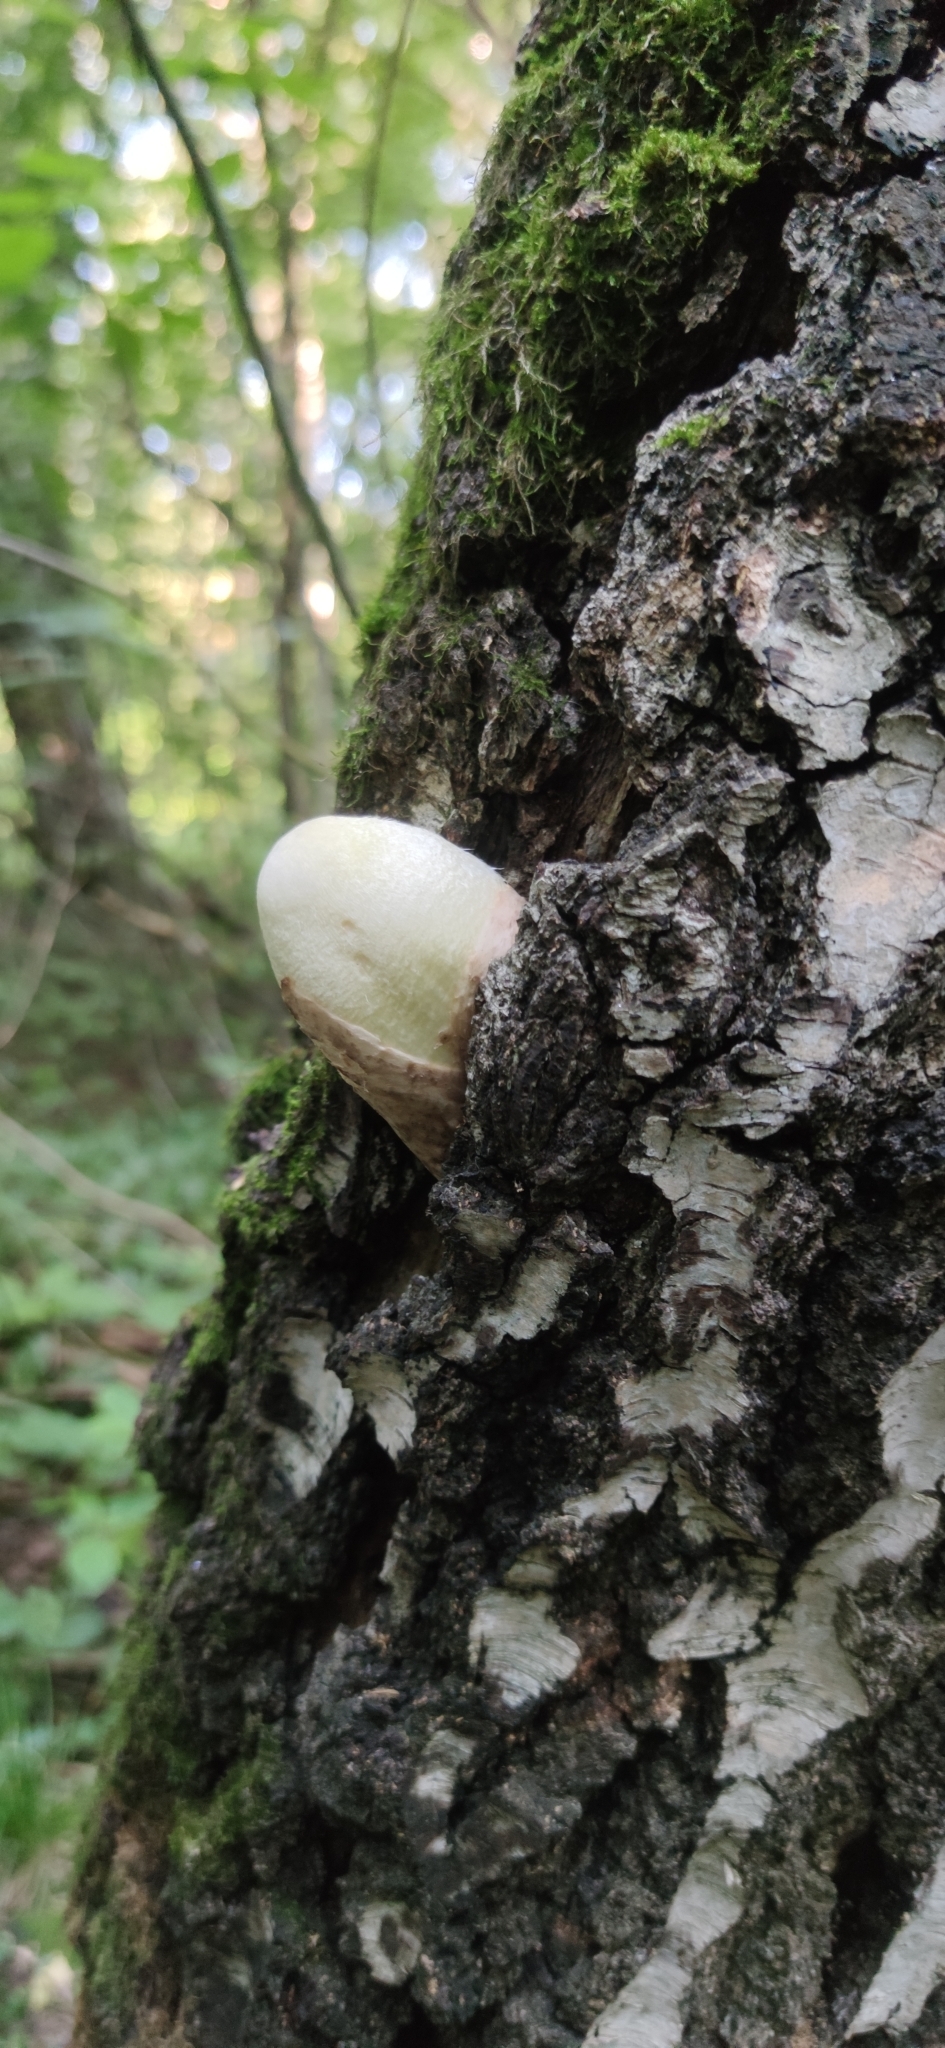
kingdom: Fungi
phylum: Basidiomycota
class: Agaricomycetes
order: Agaricales
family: Pluteaceae
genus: Volvariella
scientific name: Volvariella bombycina
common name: Silky rosegill
